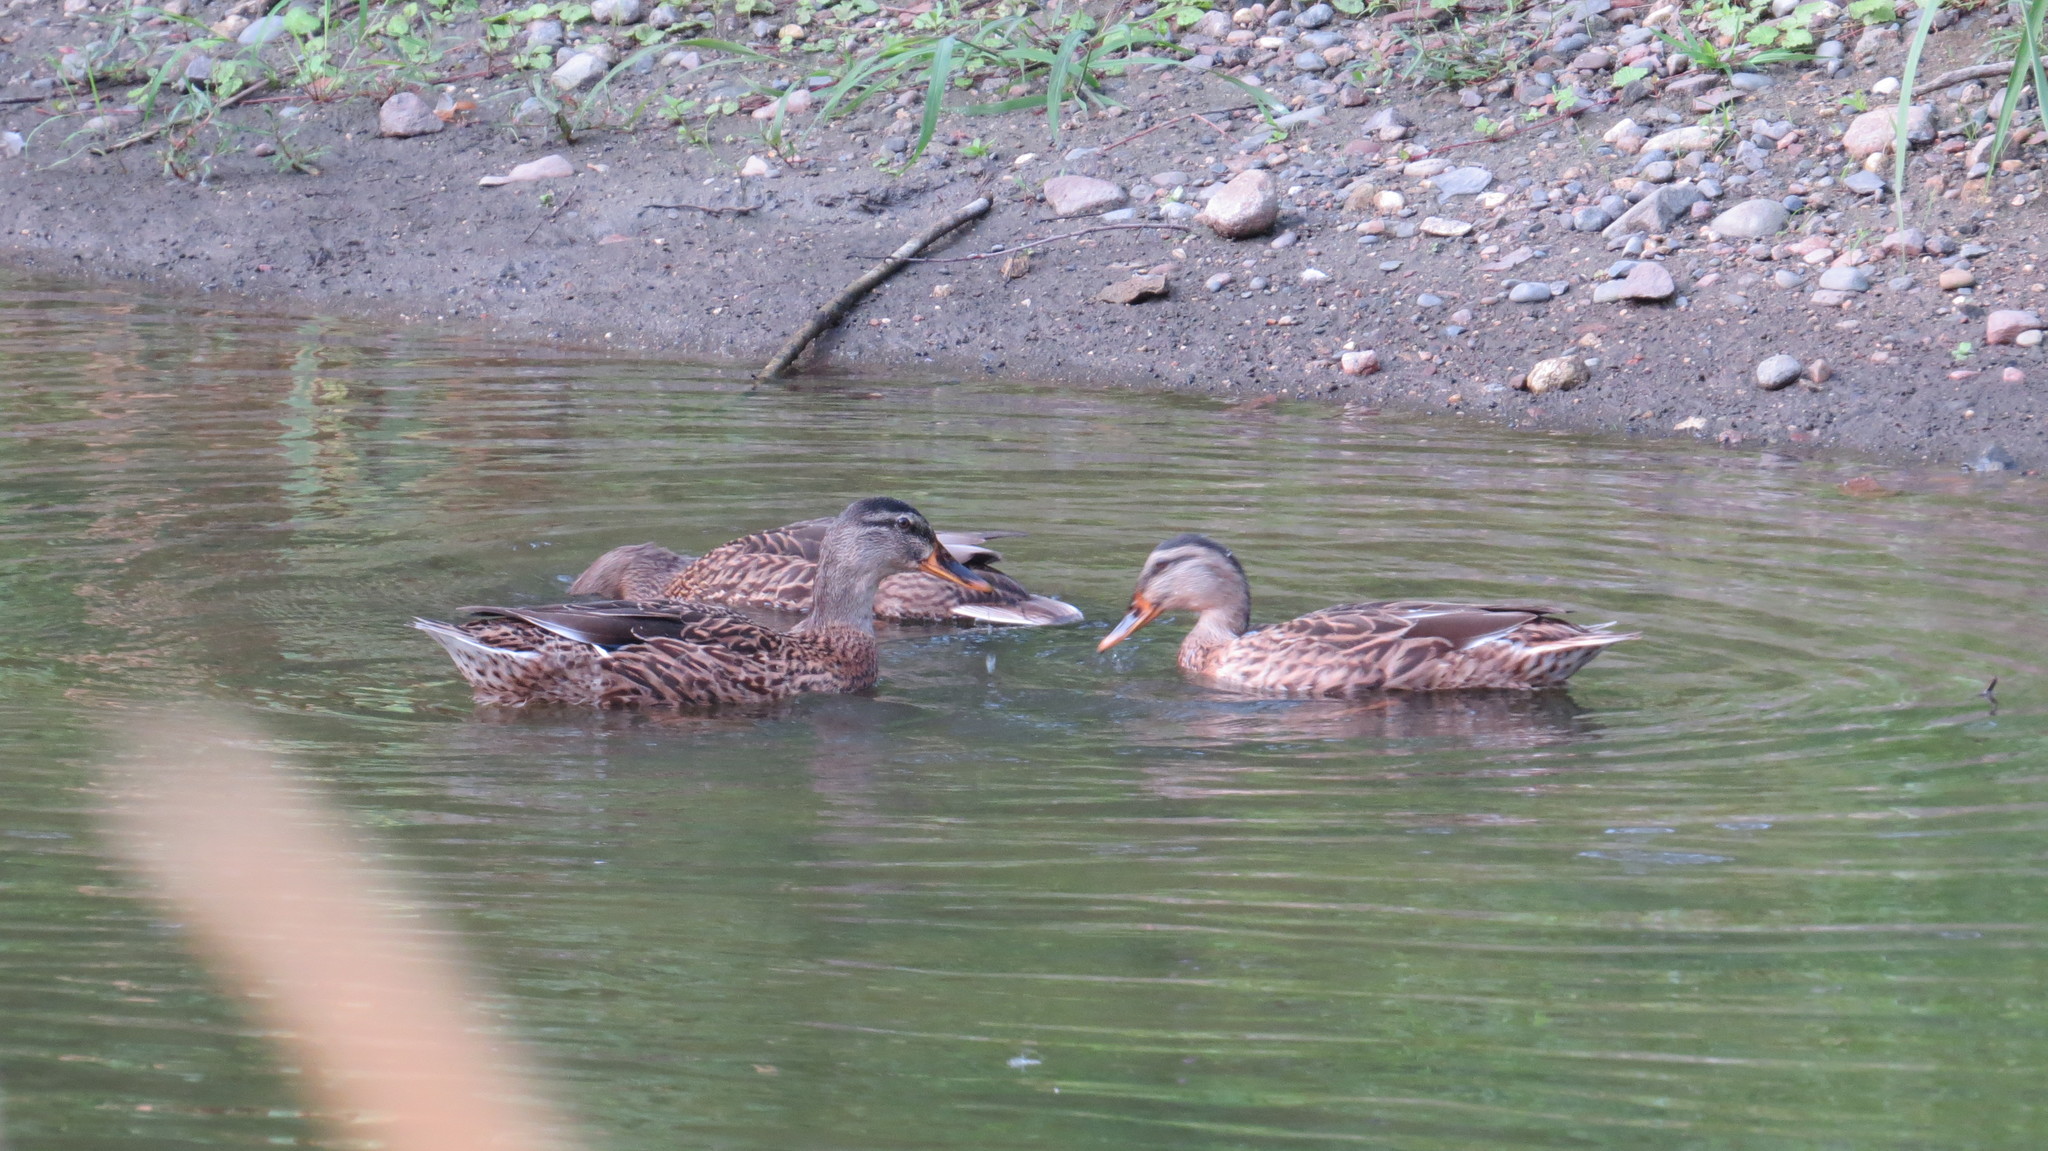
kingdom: Animalia
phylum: Chordata
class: Aves
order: Anseriformes
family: Anatidae
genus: Anas
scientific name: Anas platyrhynchos
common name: Mallard
